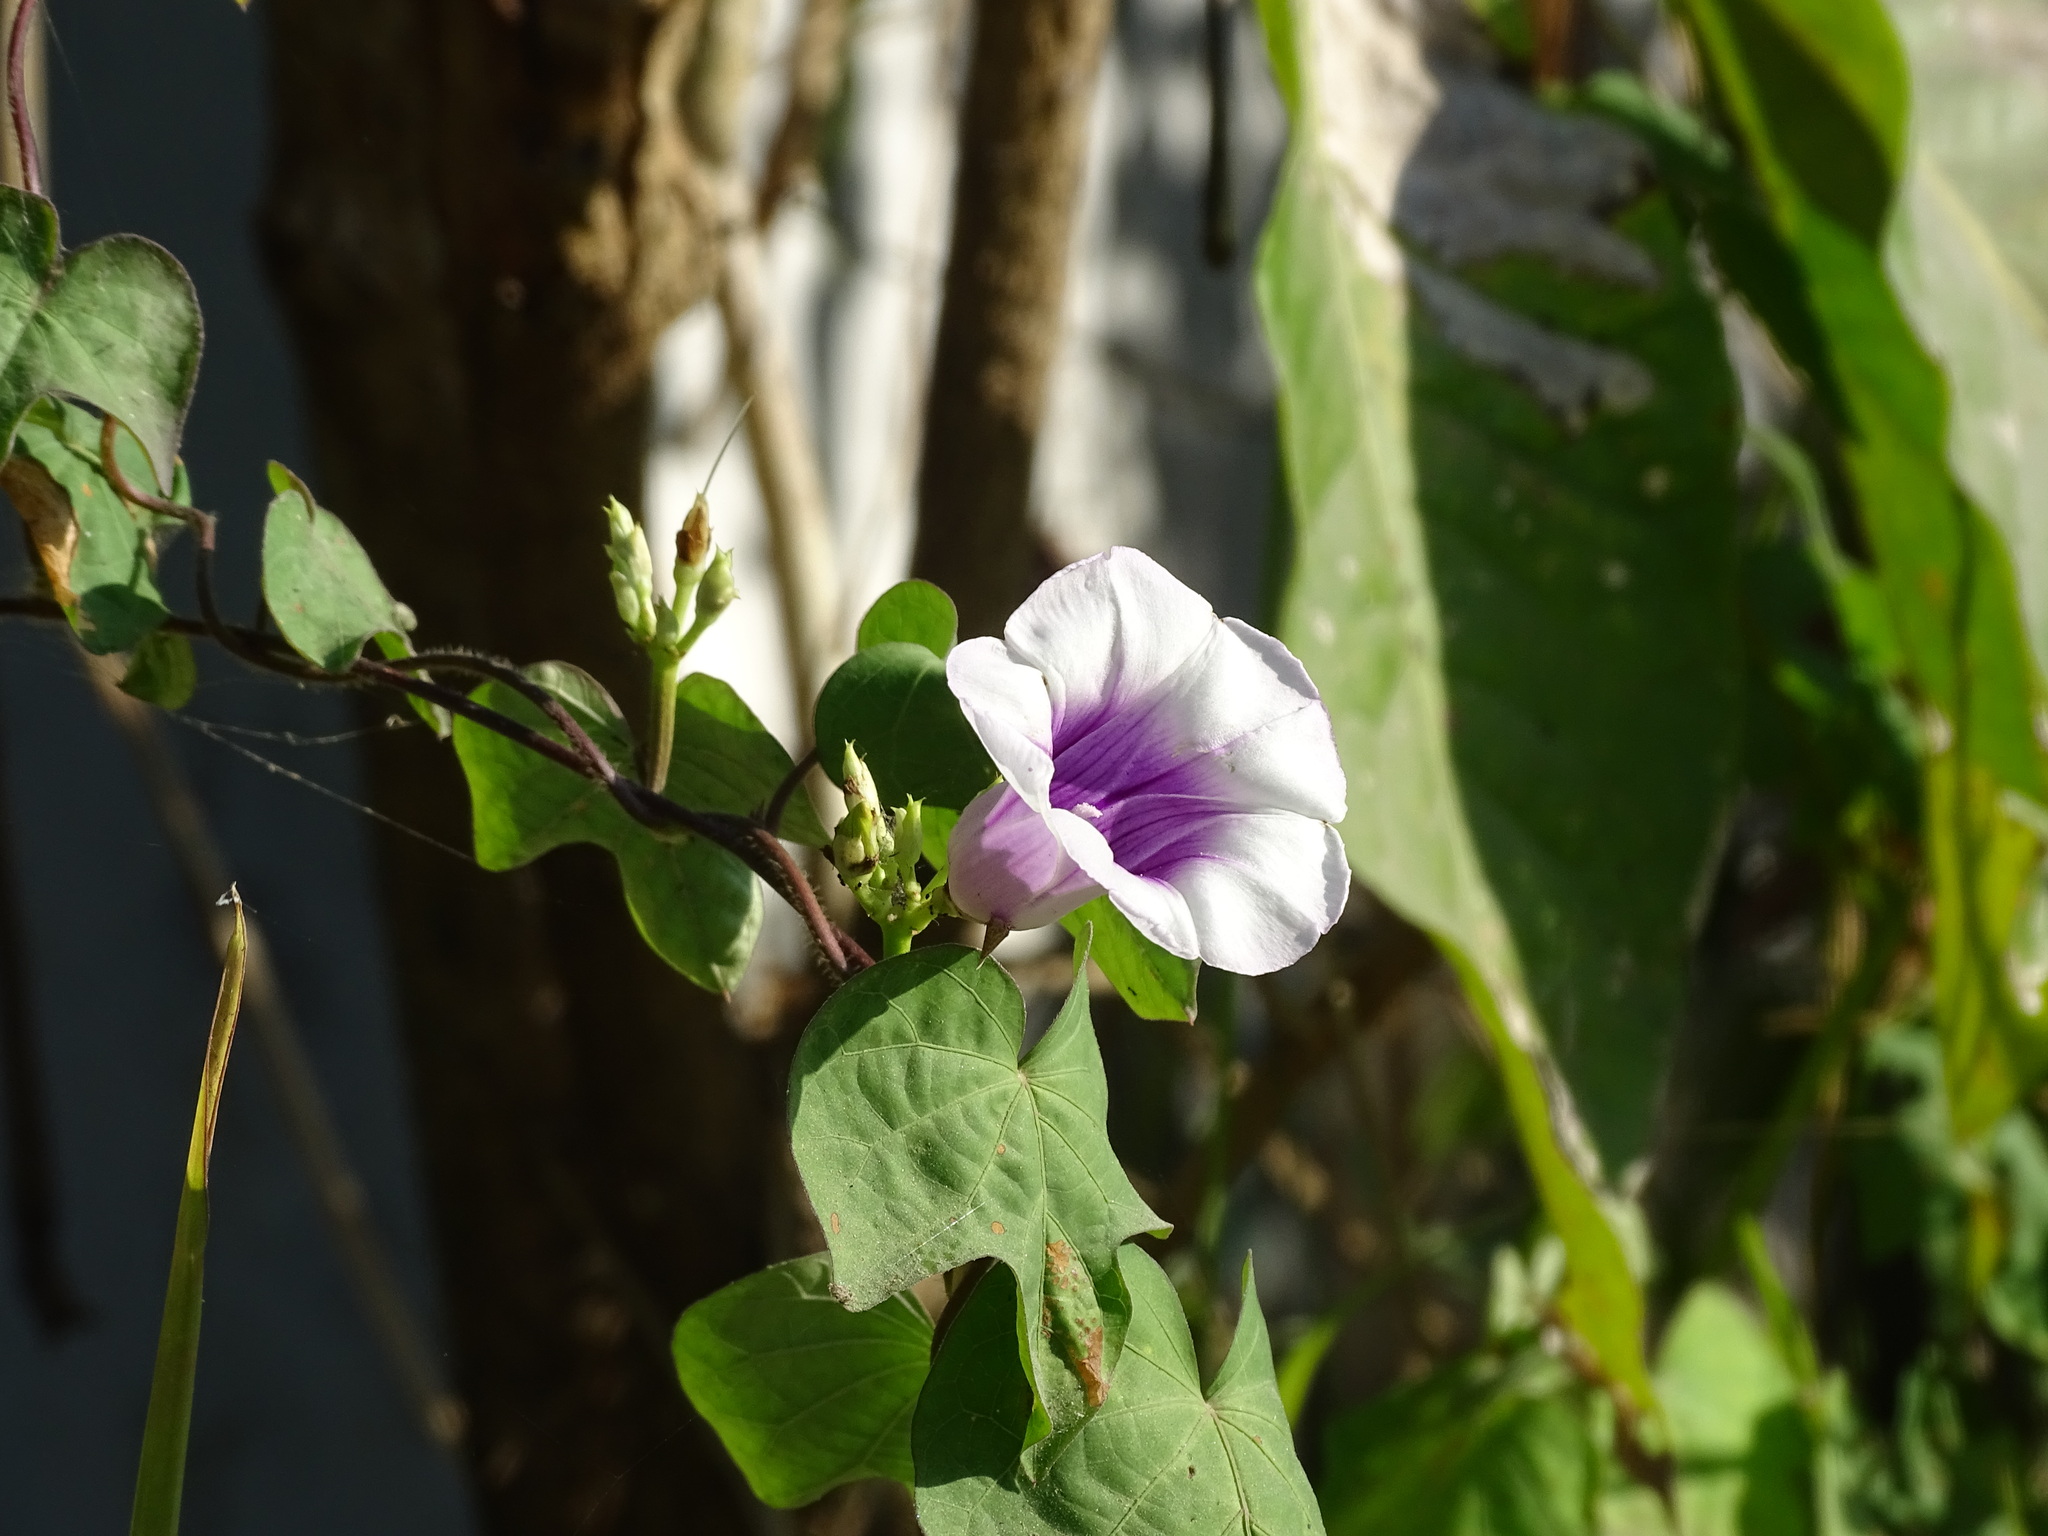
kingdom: Plantae
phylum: Tracheophyta
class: Magnoliopsida
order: Solanales
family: Convolvulaceae
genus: Ipomoea
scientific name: Ipomoea batatas
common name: Sweet-potato
